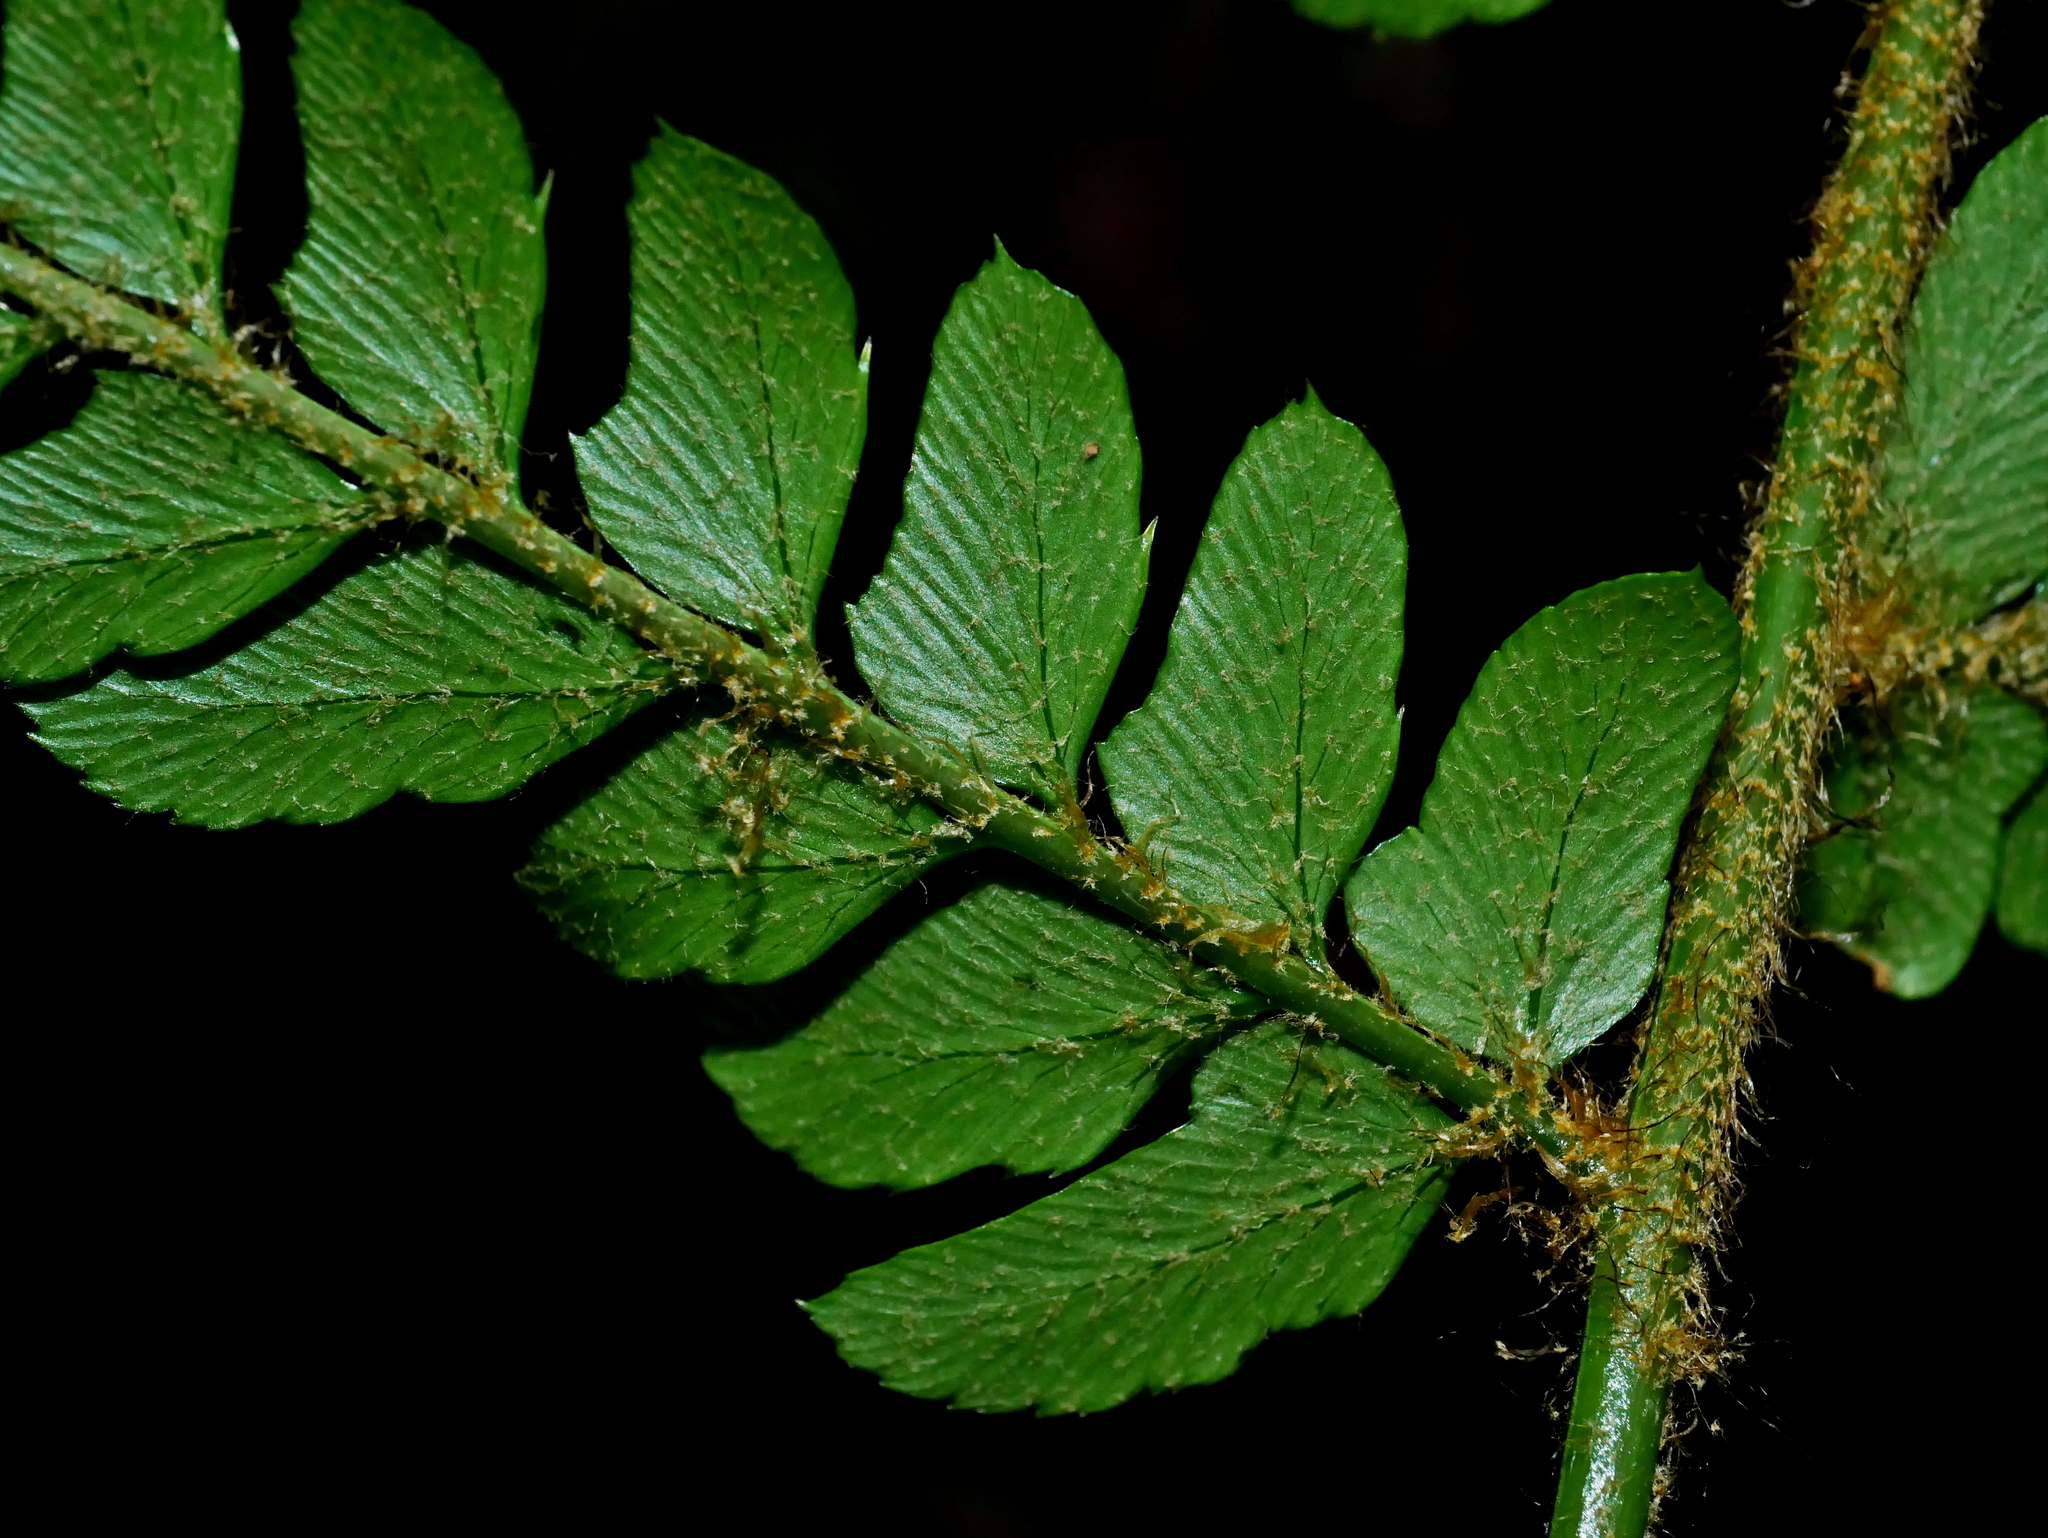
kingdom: Plantae
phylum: Tracheophyta
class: Polypodiopsida
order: Polypodiales
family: Dryopteridaceae
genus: Polystichum
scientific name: Polystichum biaristatum
